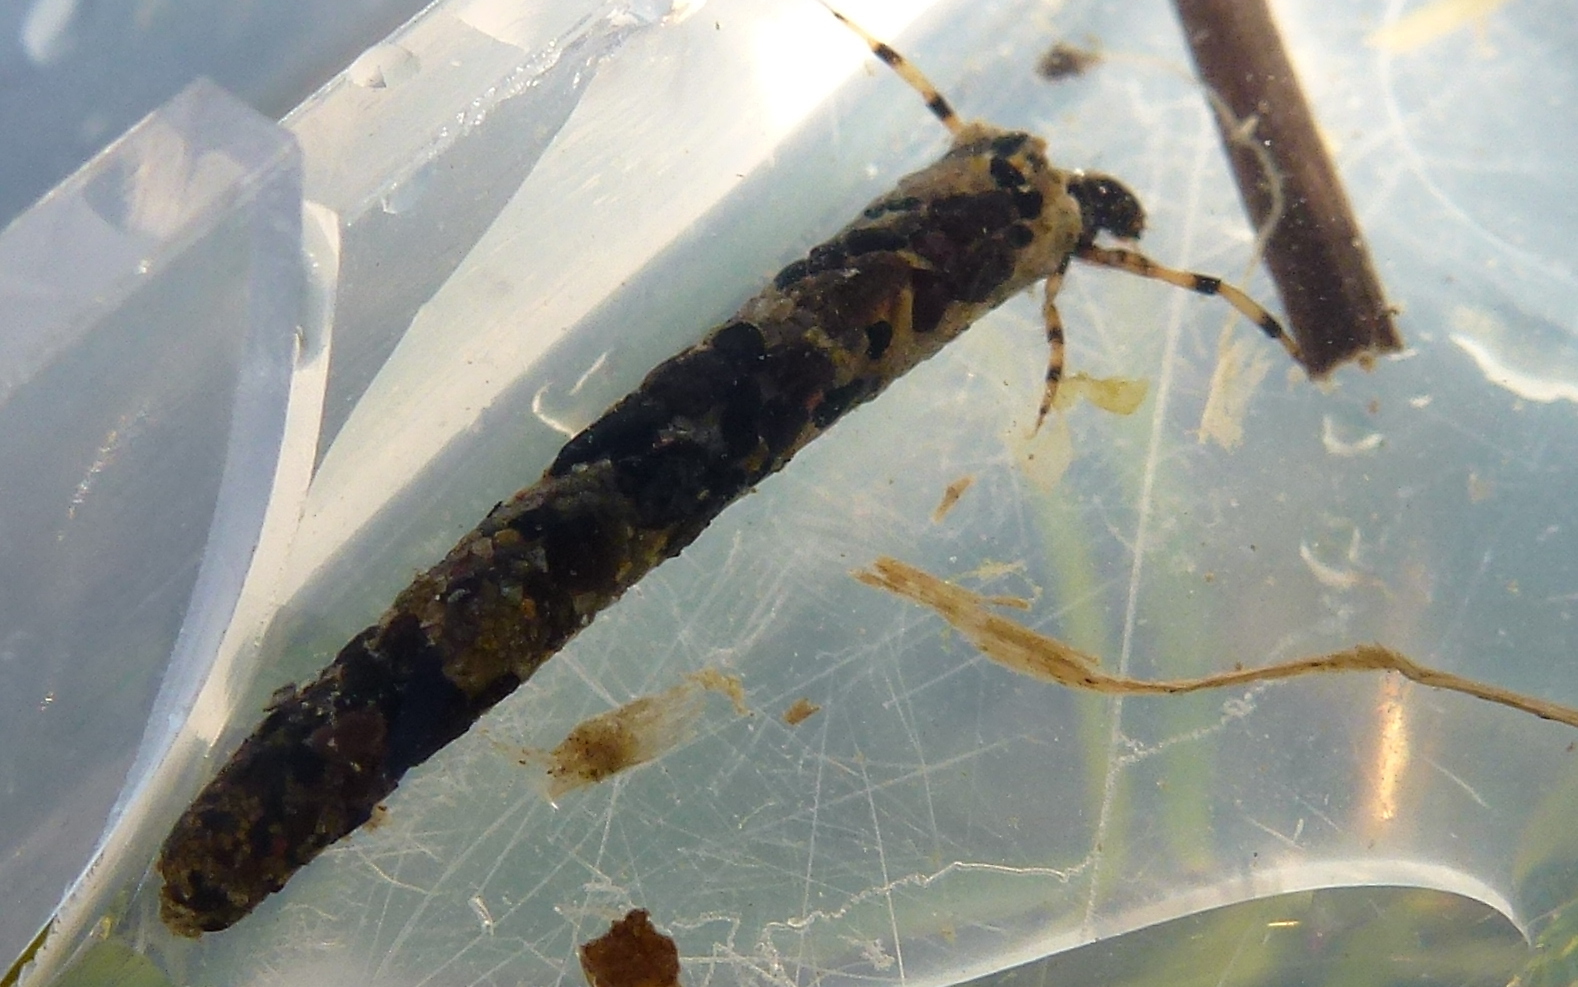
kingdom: Animalia
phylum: Arthropoda
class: Insecta
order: Trichoptera
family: Leptoceridae
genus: Hudsonema
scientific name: Hudsonema amabile
